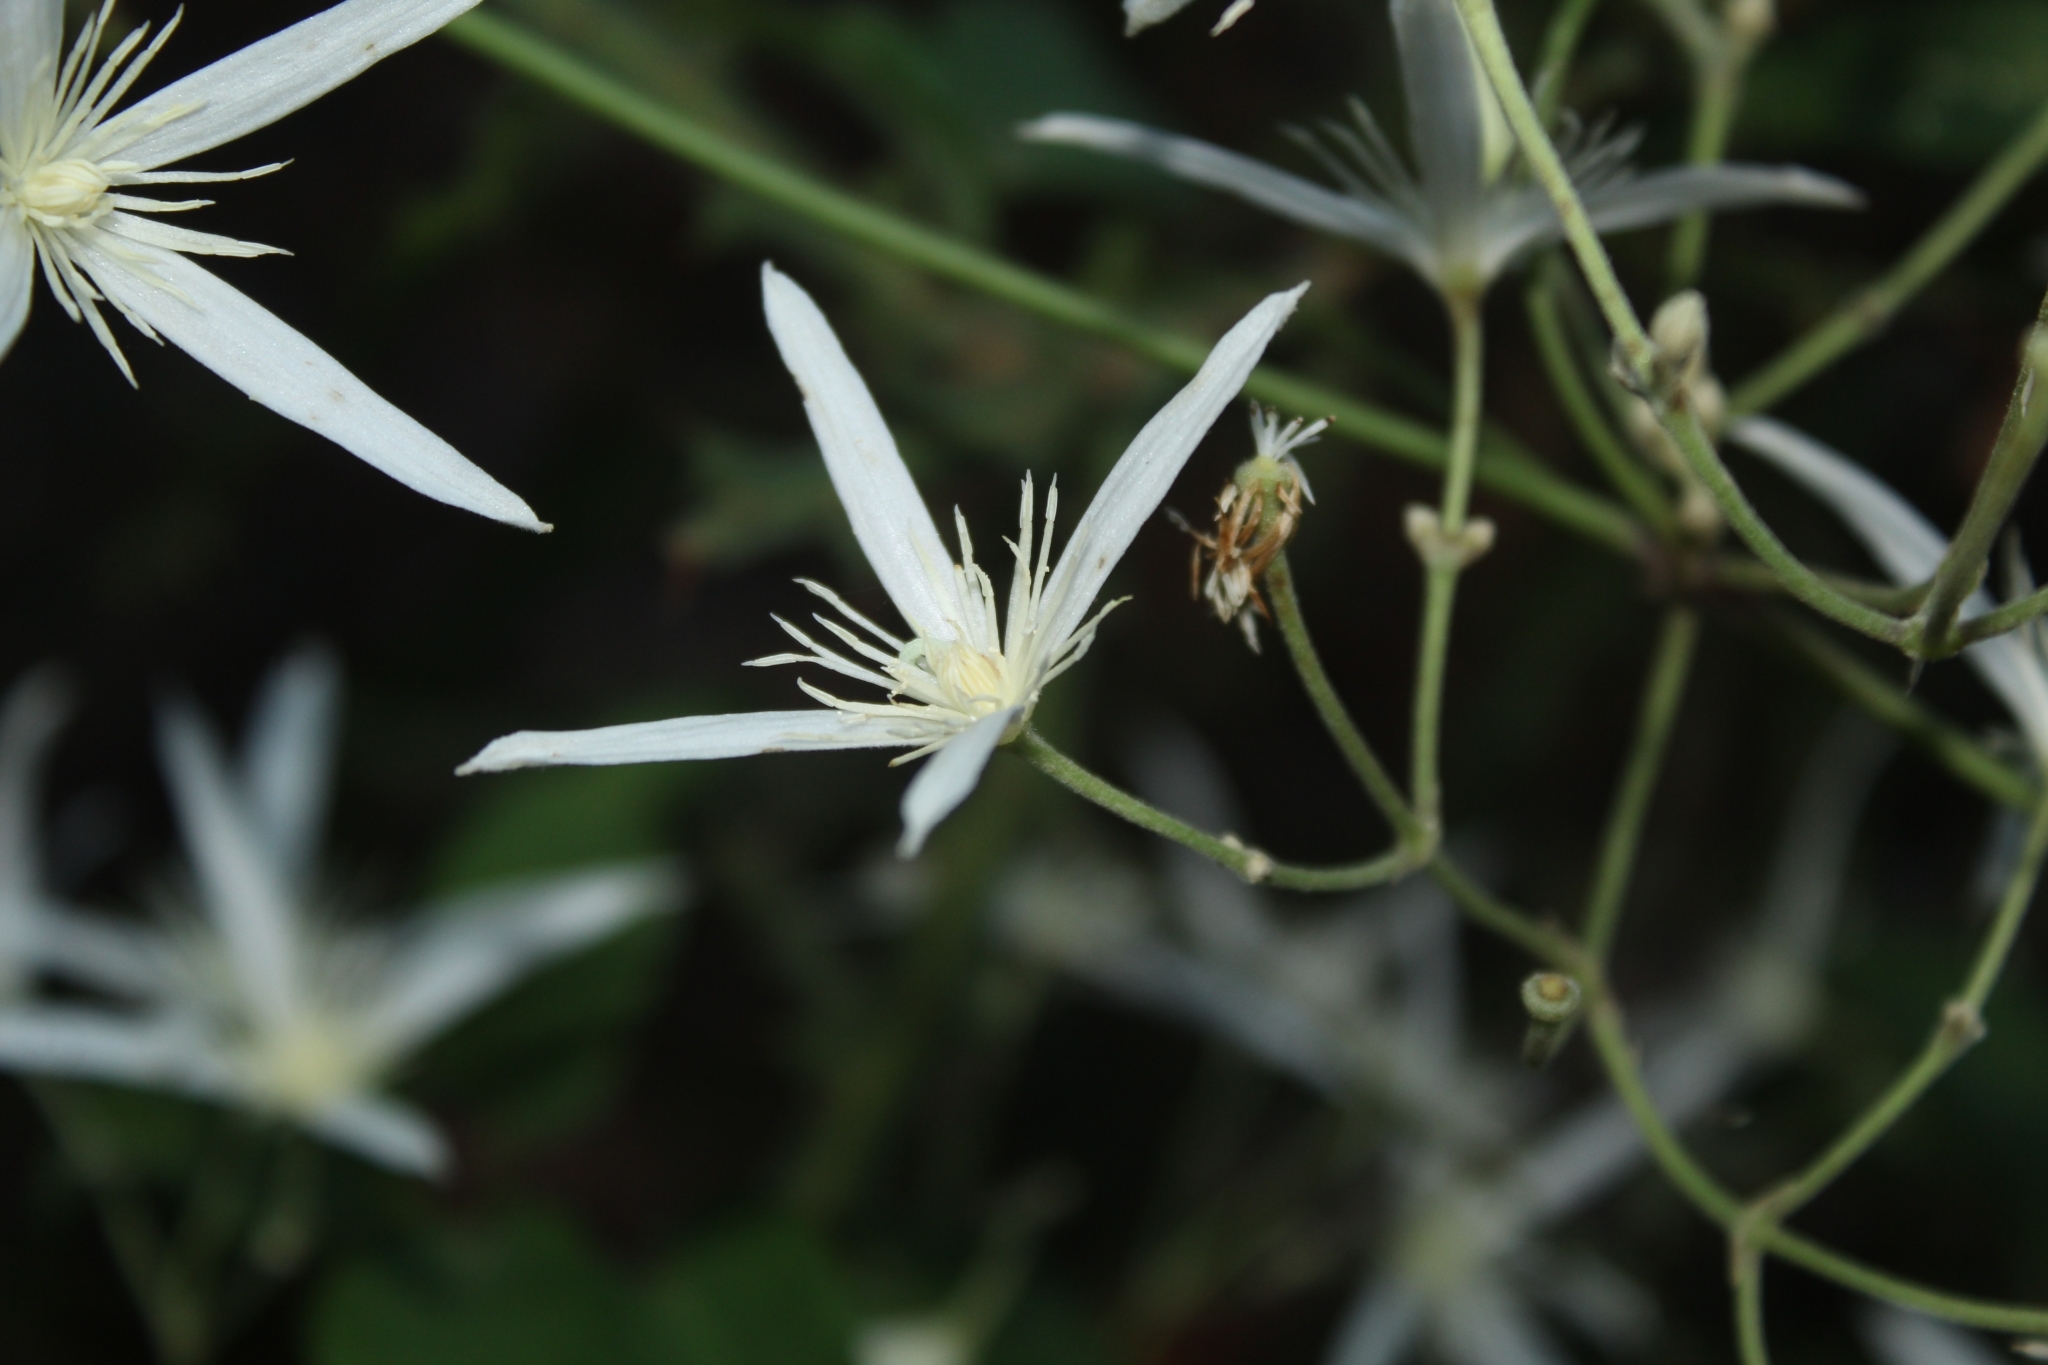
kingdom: Plantae
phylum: Tracheophyta
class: Magnoliopsida
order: Ranunculales
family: Ranunculaceae
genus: Clematis
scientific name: Clematis pubescens
